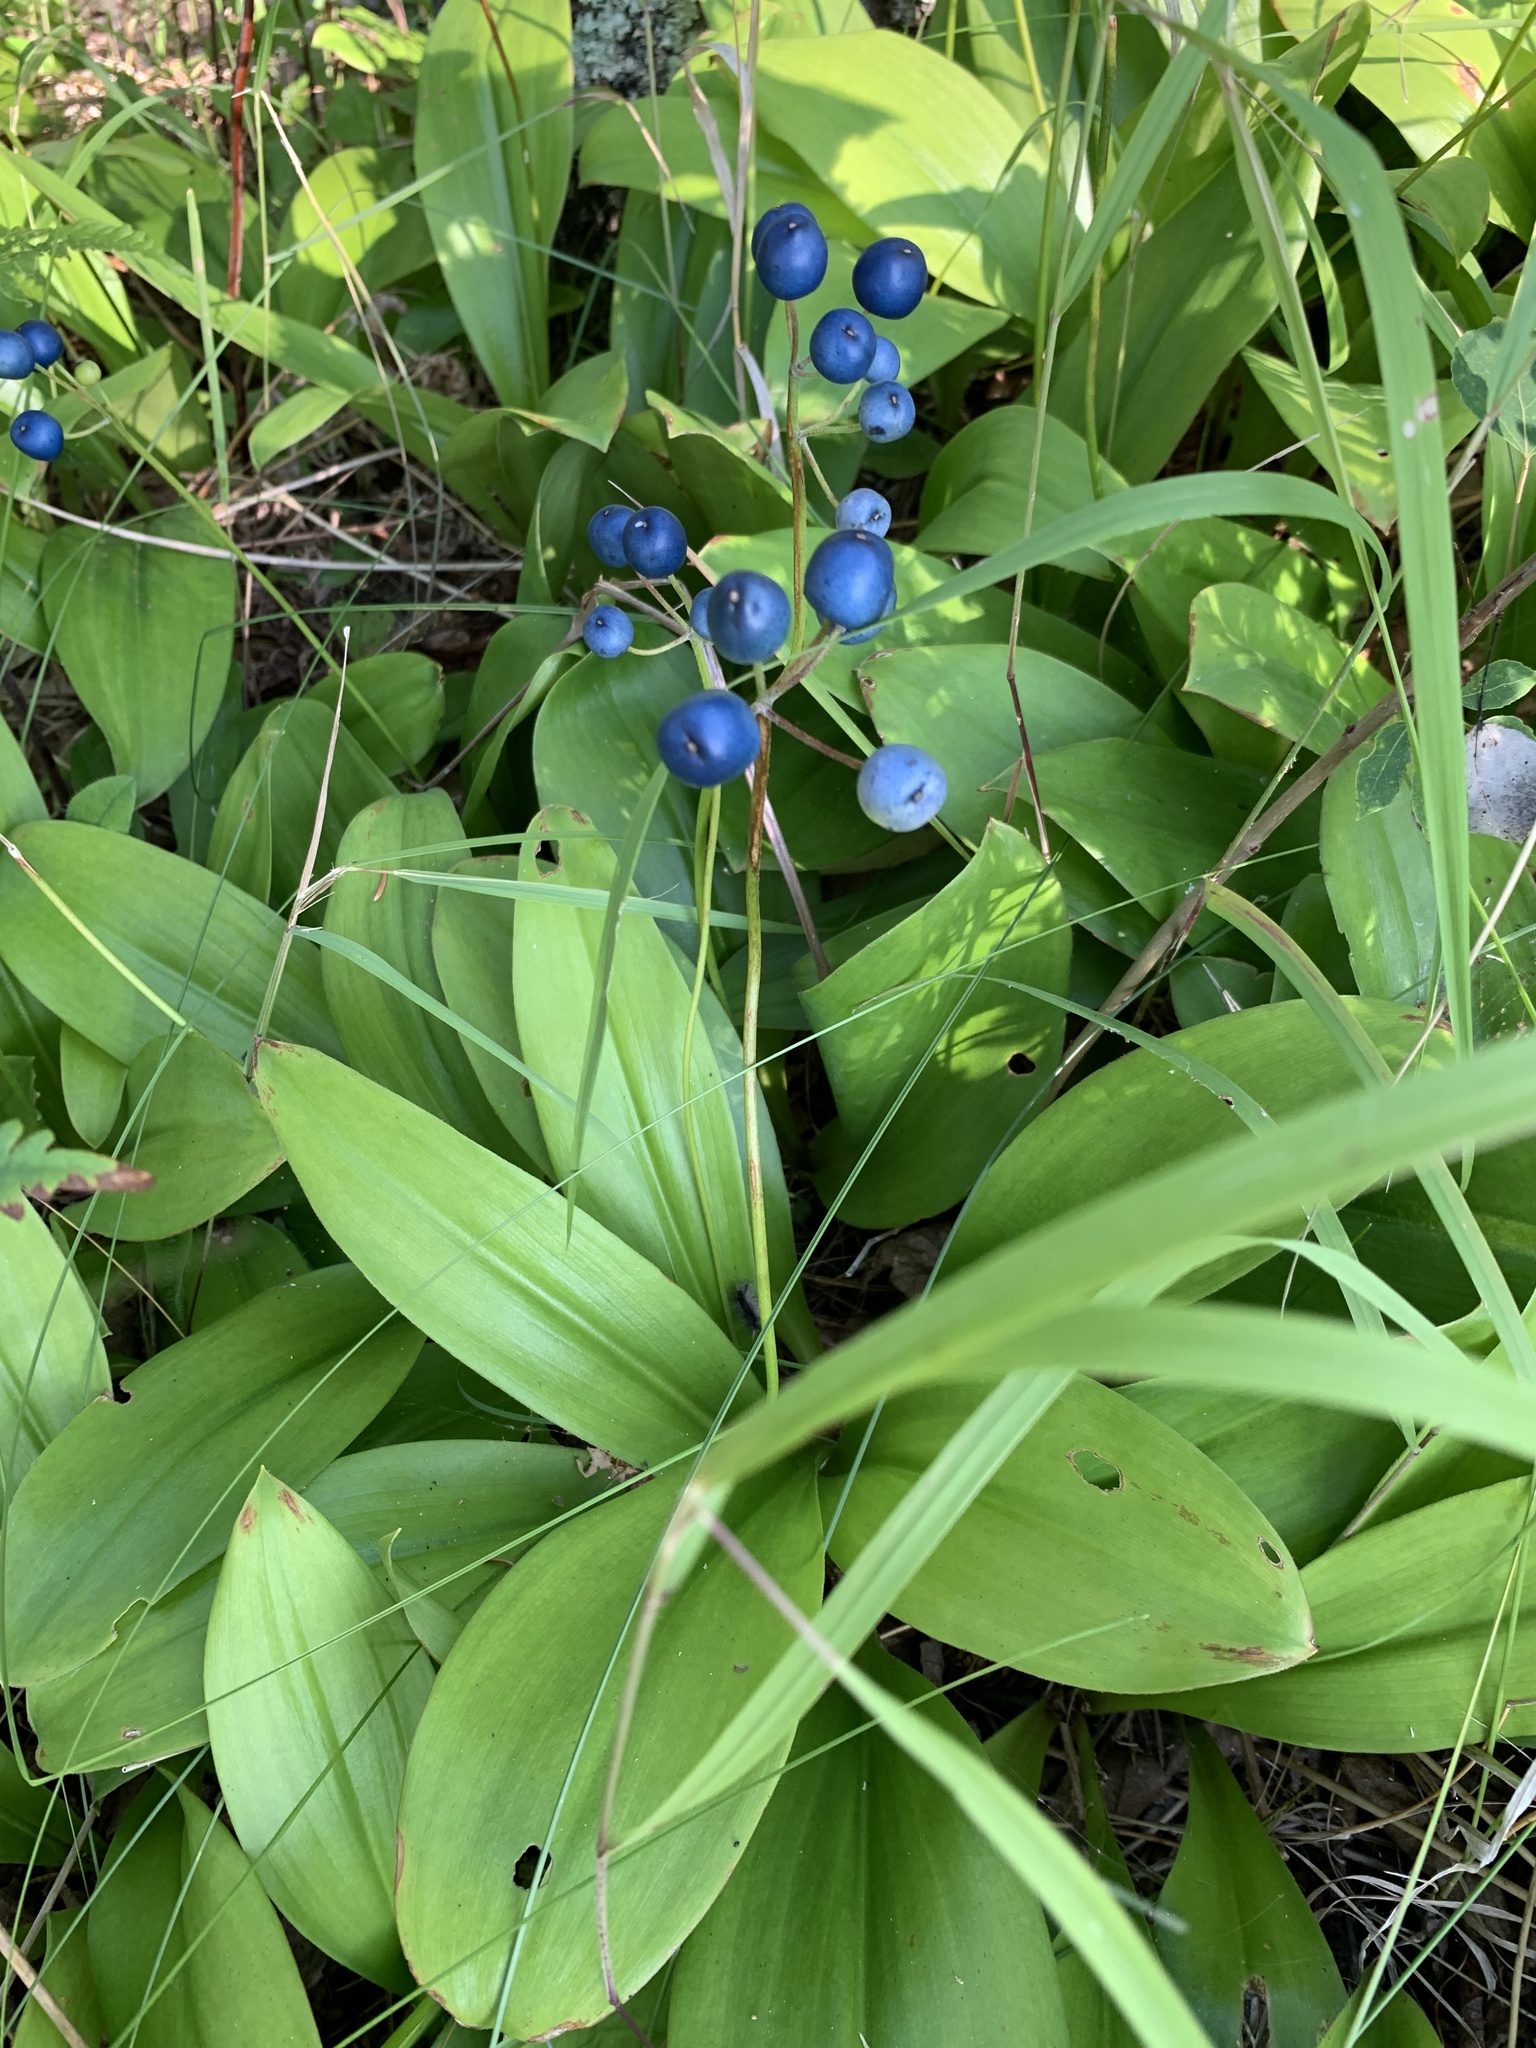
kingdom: Plantae
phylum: Tracheophyta
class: Liliopsida
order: Liliales
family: Liliaceae
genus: Clintonia
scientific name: Clintonia borealis
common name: Yellow clintonia
